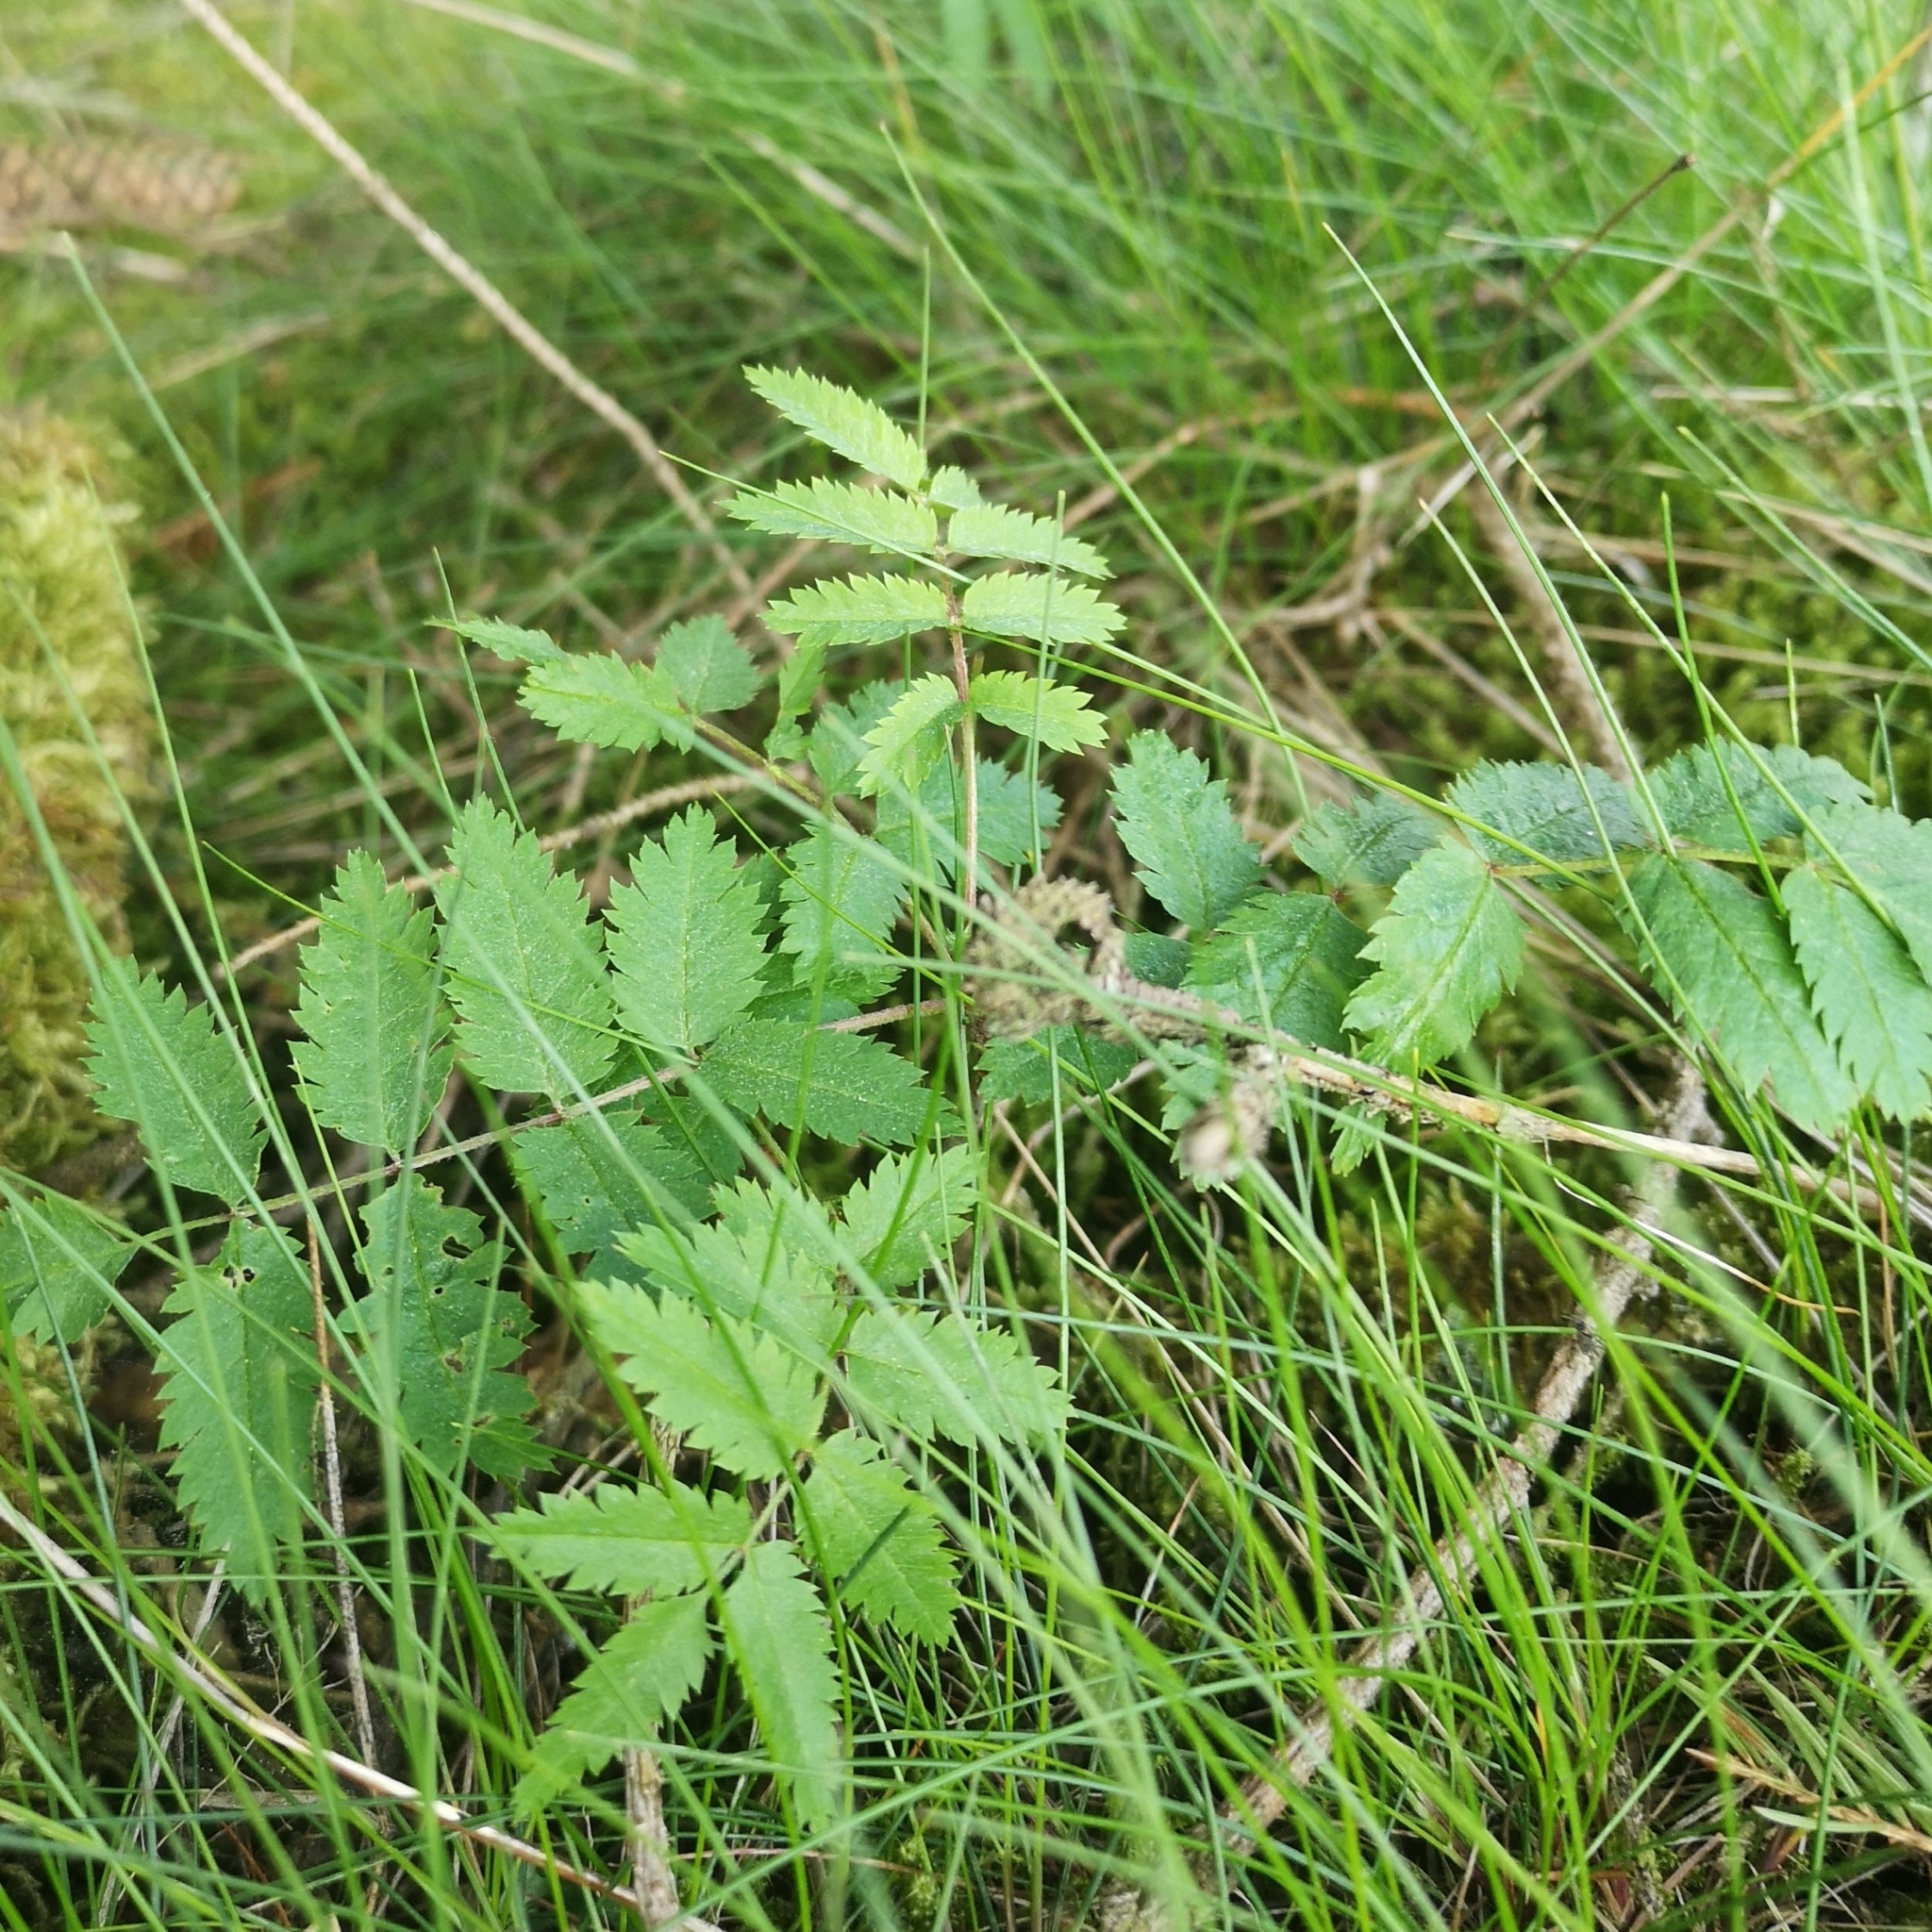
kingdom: Plantae
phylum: Tracheophyta
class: Magnoliopsida
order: Rosales
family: Rosaceae
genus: Sorbus
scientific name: Sorbus aucuparia
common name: Rowan
